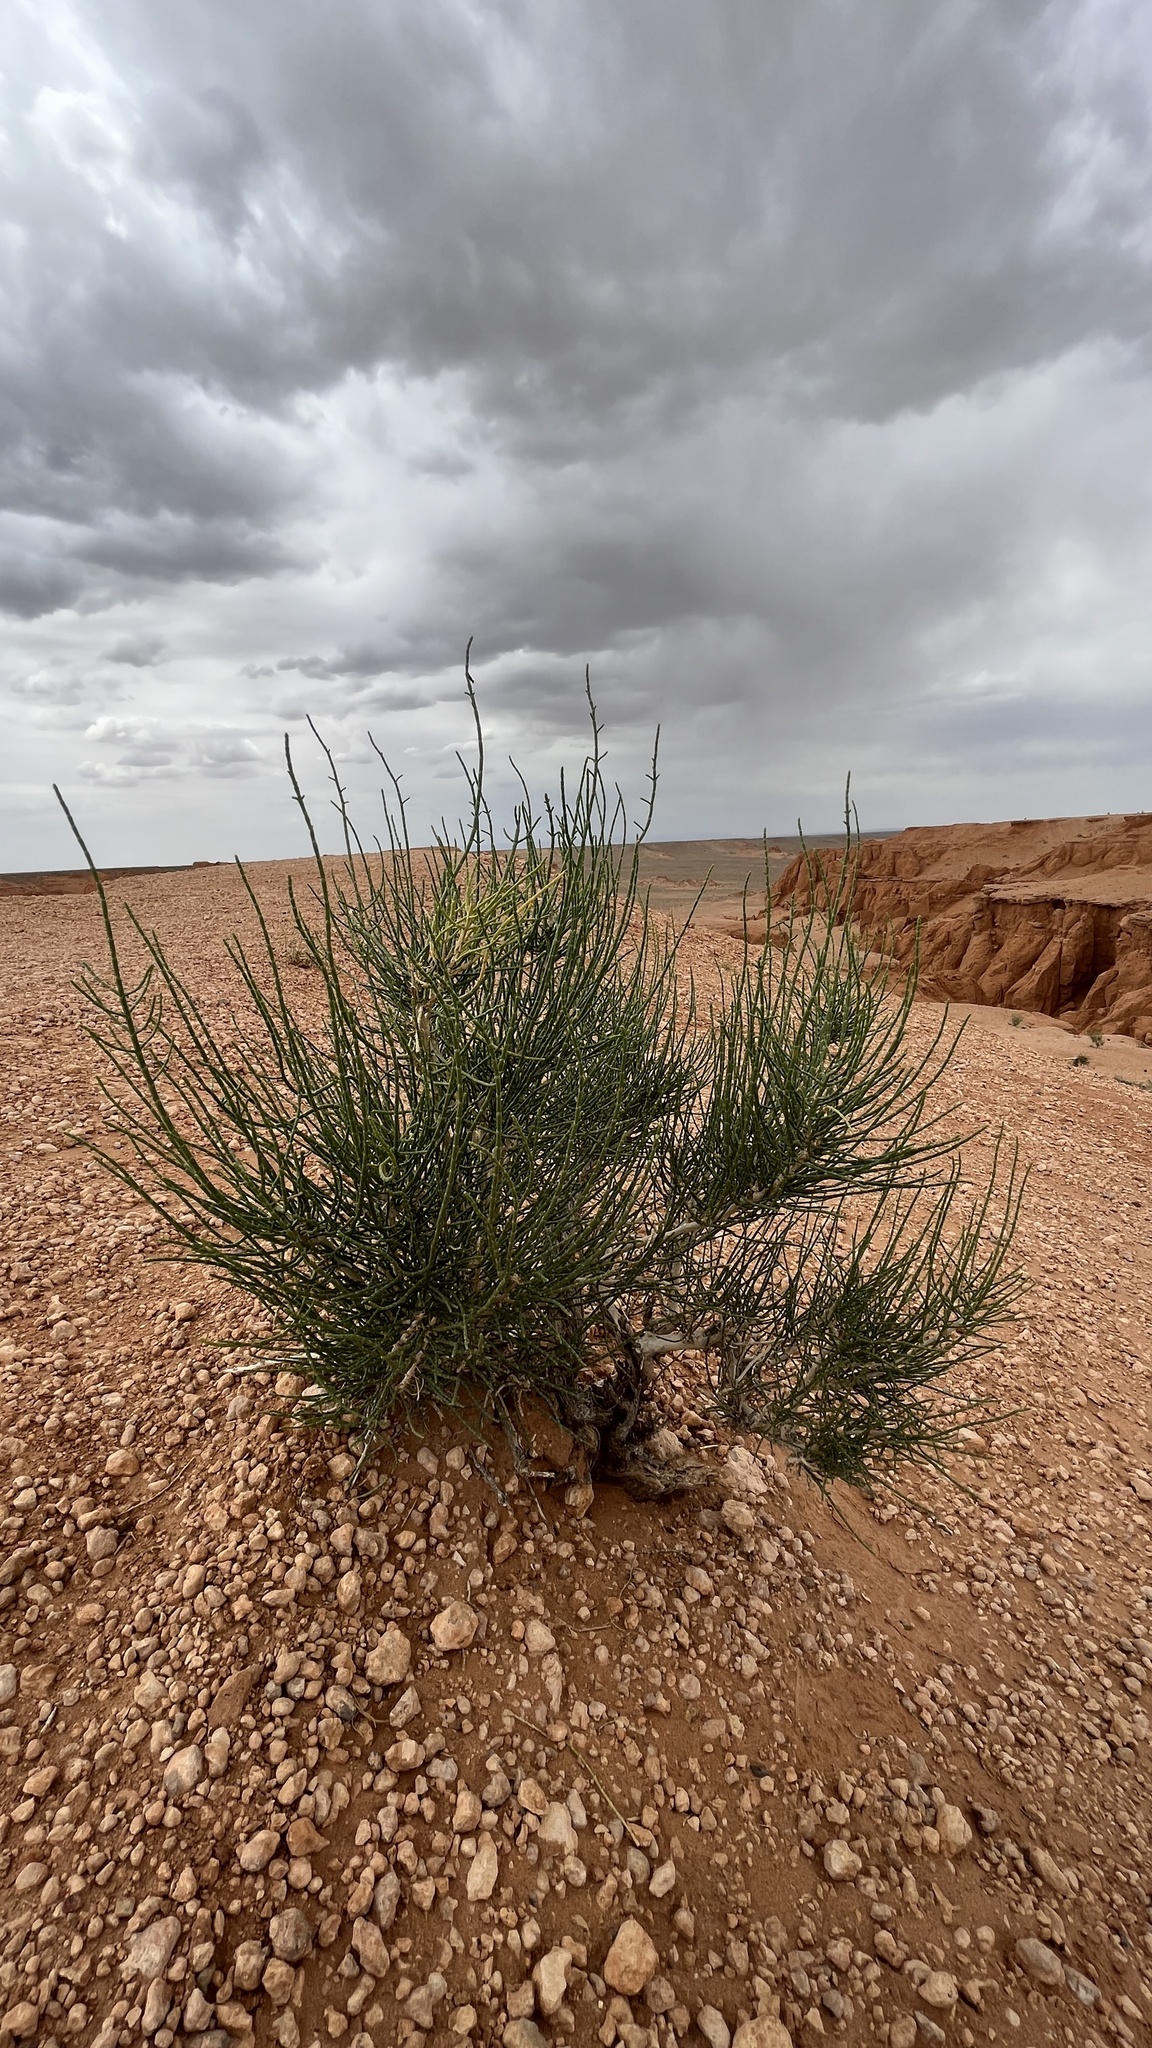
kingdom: Plantae
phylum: Tracheophyta
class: Magnoliopsida
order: Caryophyllales
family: Amaranthaceae
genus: Haloxylon
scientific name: Haloxylon ammodendron
